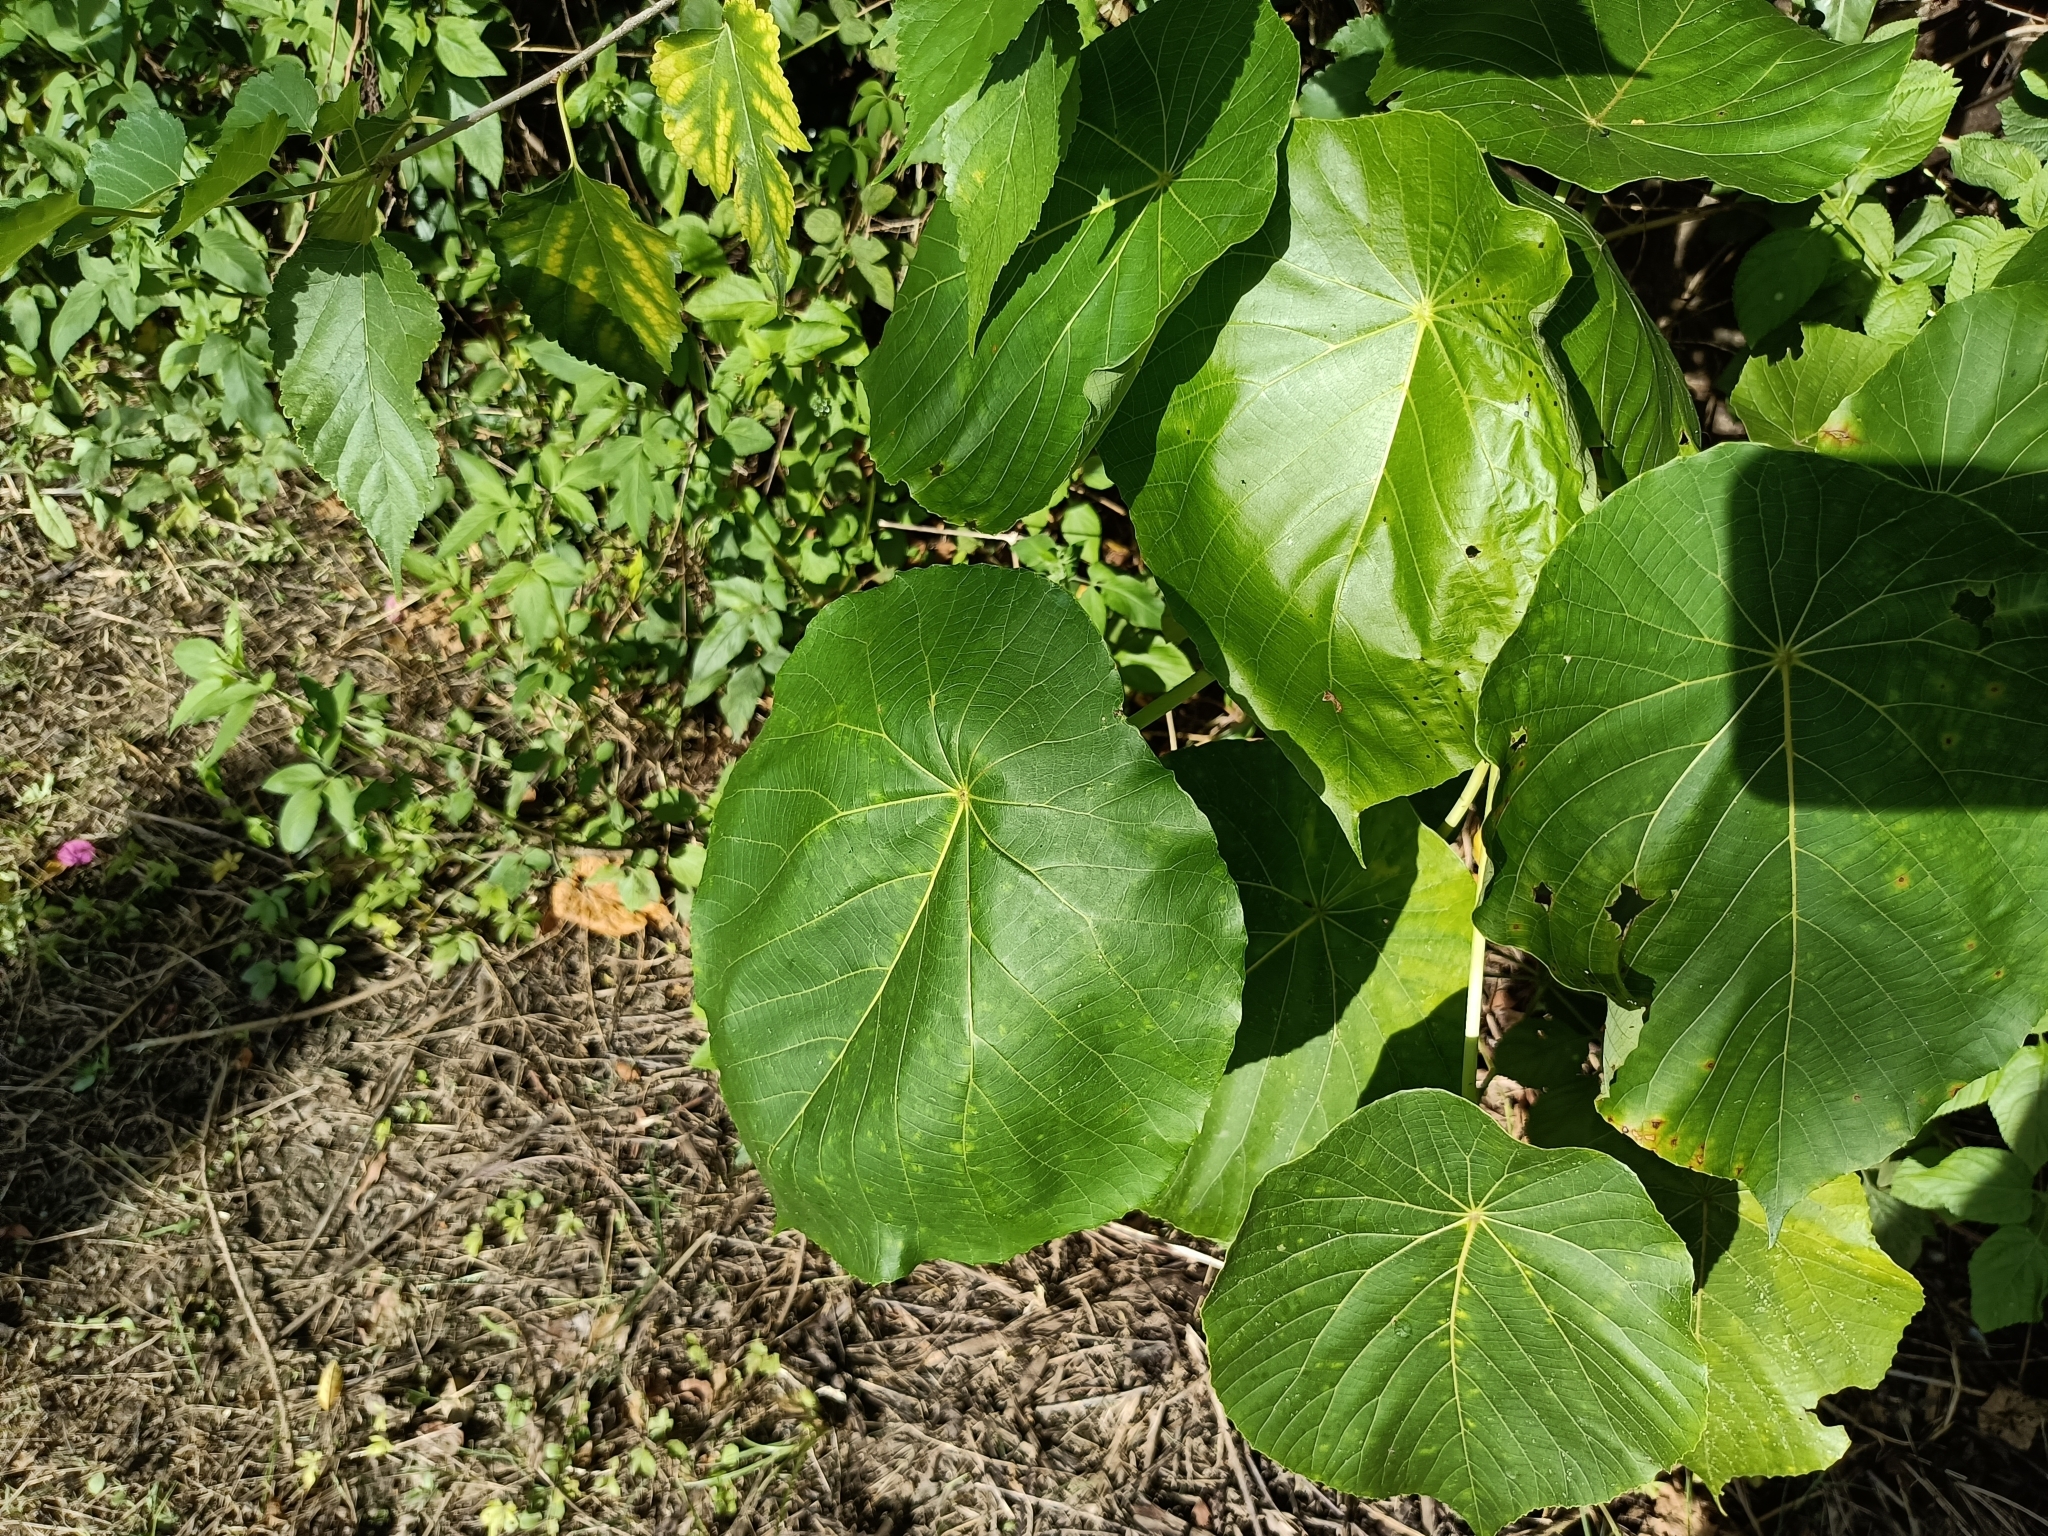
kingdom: Plantae
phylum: Tracheophyta
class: Magnoliopsida
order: Malpighiales
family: Euphorbiaceae
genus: Macaranga
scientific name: Macaranga tanarius
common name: Parasol leaf tree
